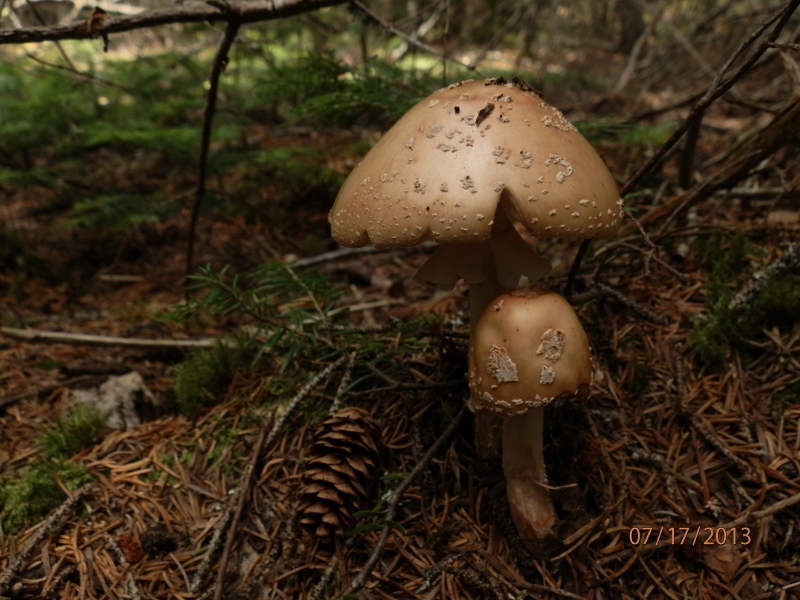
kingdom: Fungi
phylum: Basidiomycota
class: Agaricomycetes
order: Agaricales
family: Amanitaceae
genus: Amanita
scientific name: Amanita rubescens
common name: Blusher
